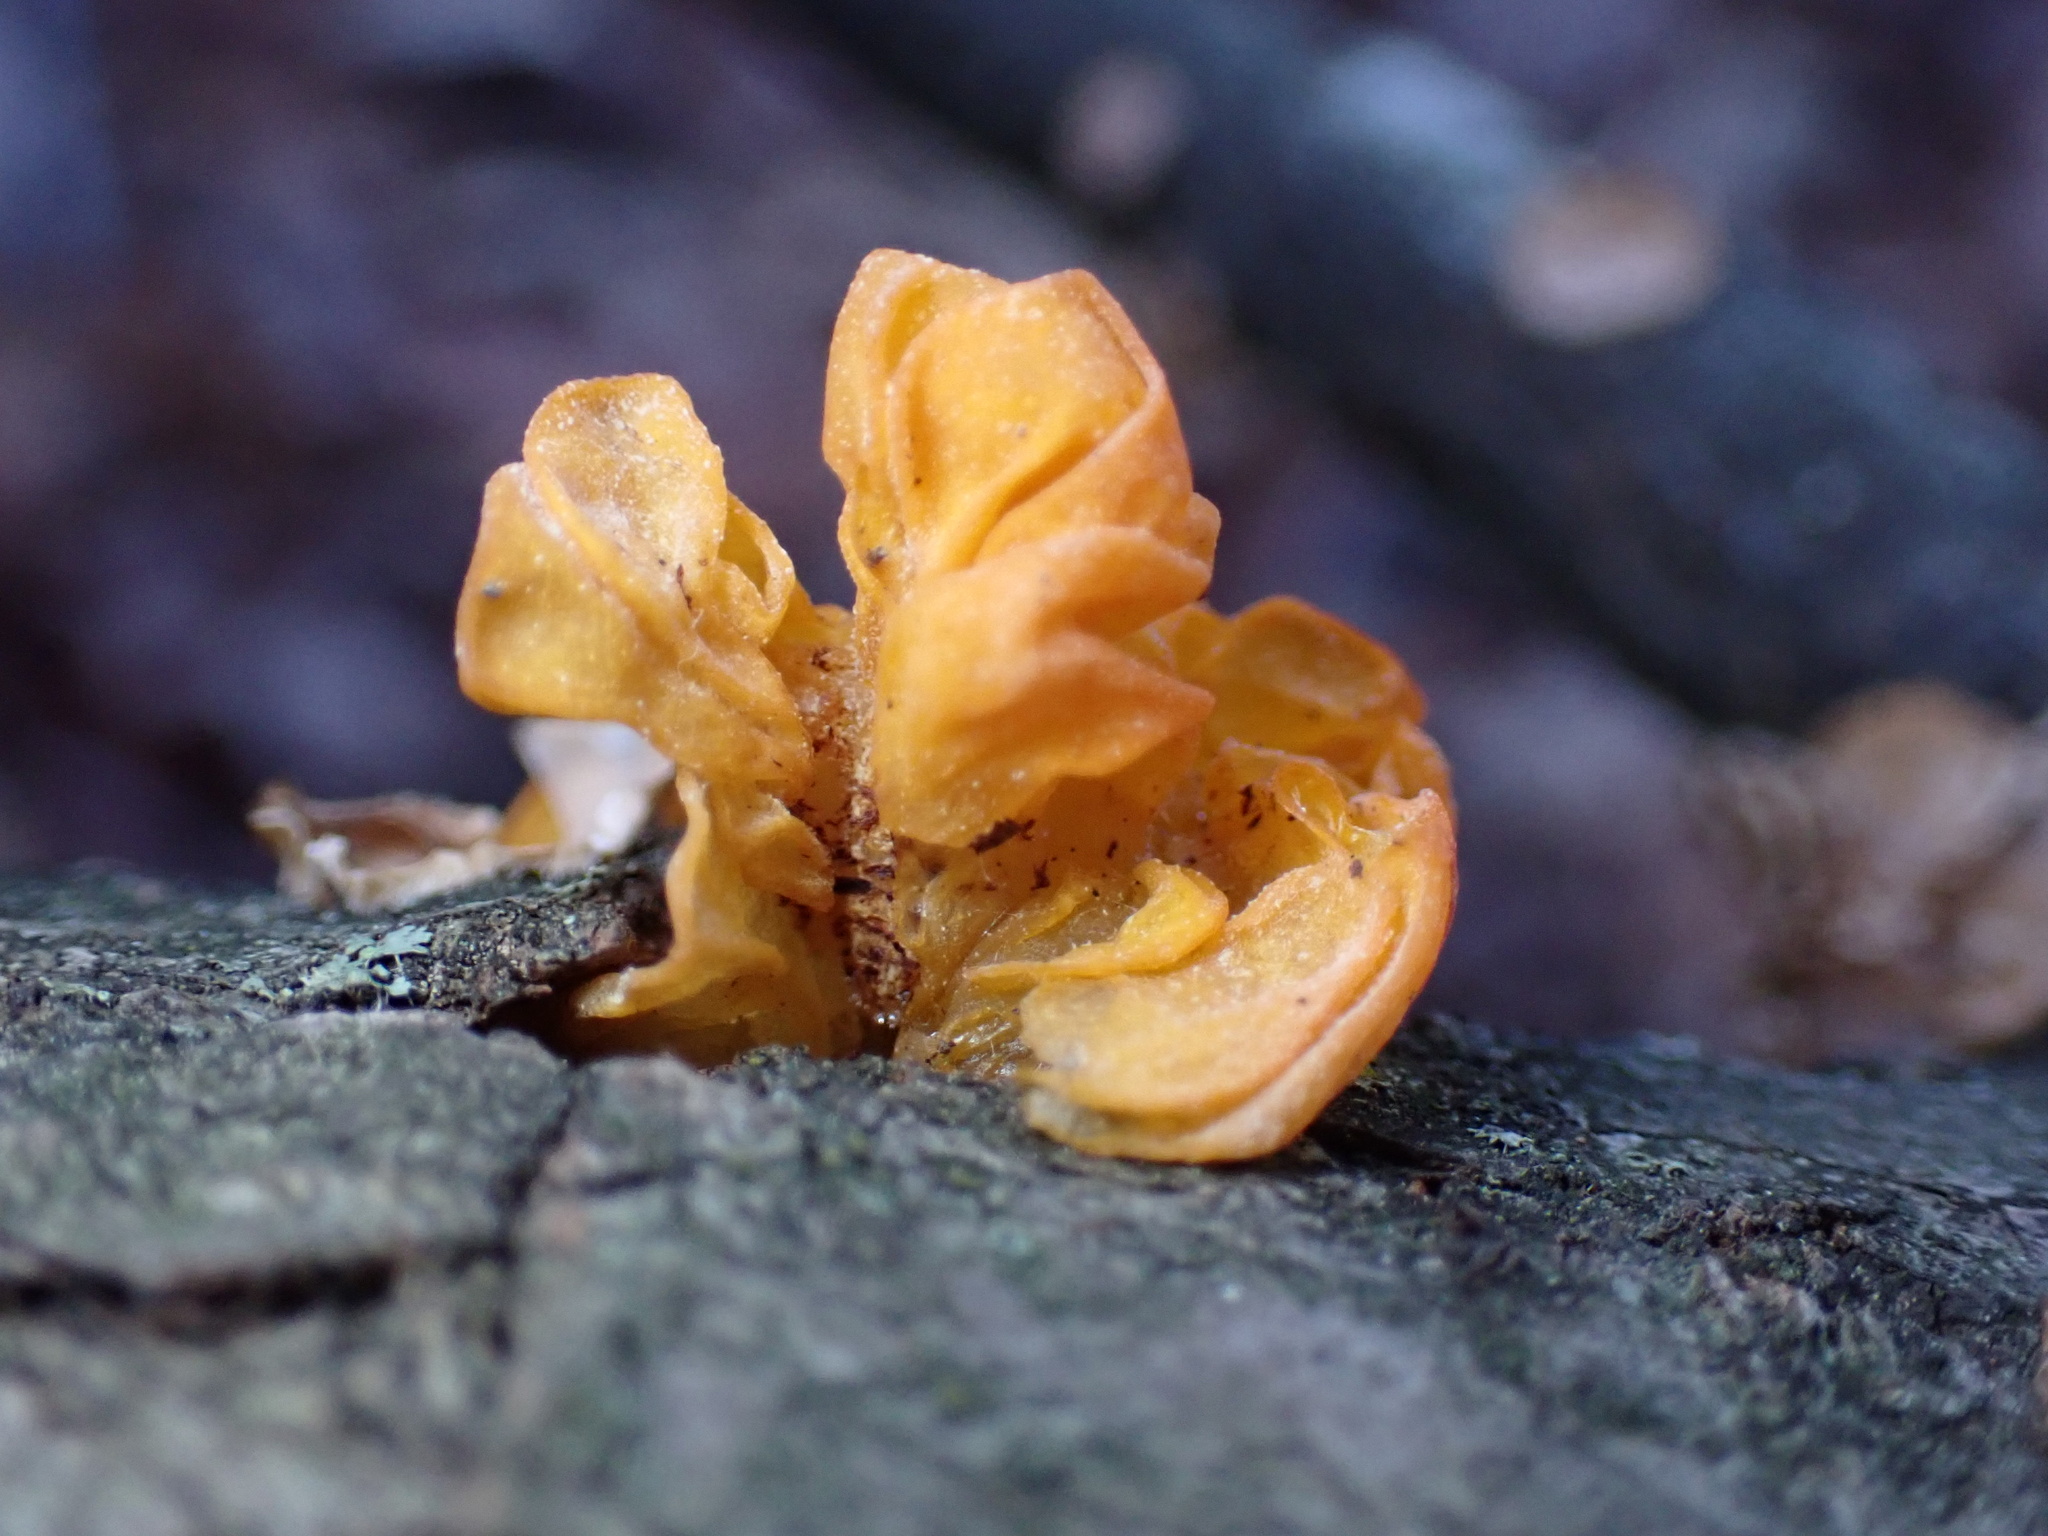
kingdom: Fungi
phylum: Basidiomycota
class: Tremellomycetes
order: Tremellales
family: Naemateliaceae
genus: Naematelia
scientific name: Naematelia aurantia
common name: Golden ear
